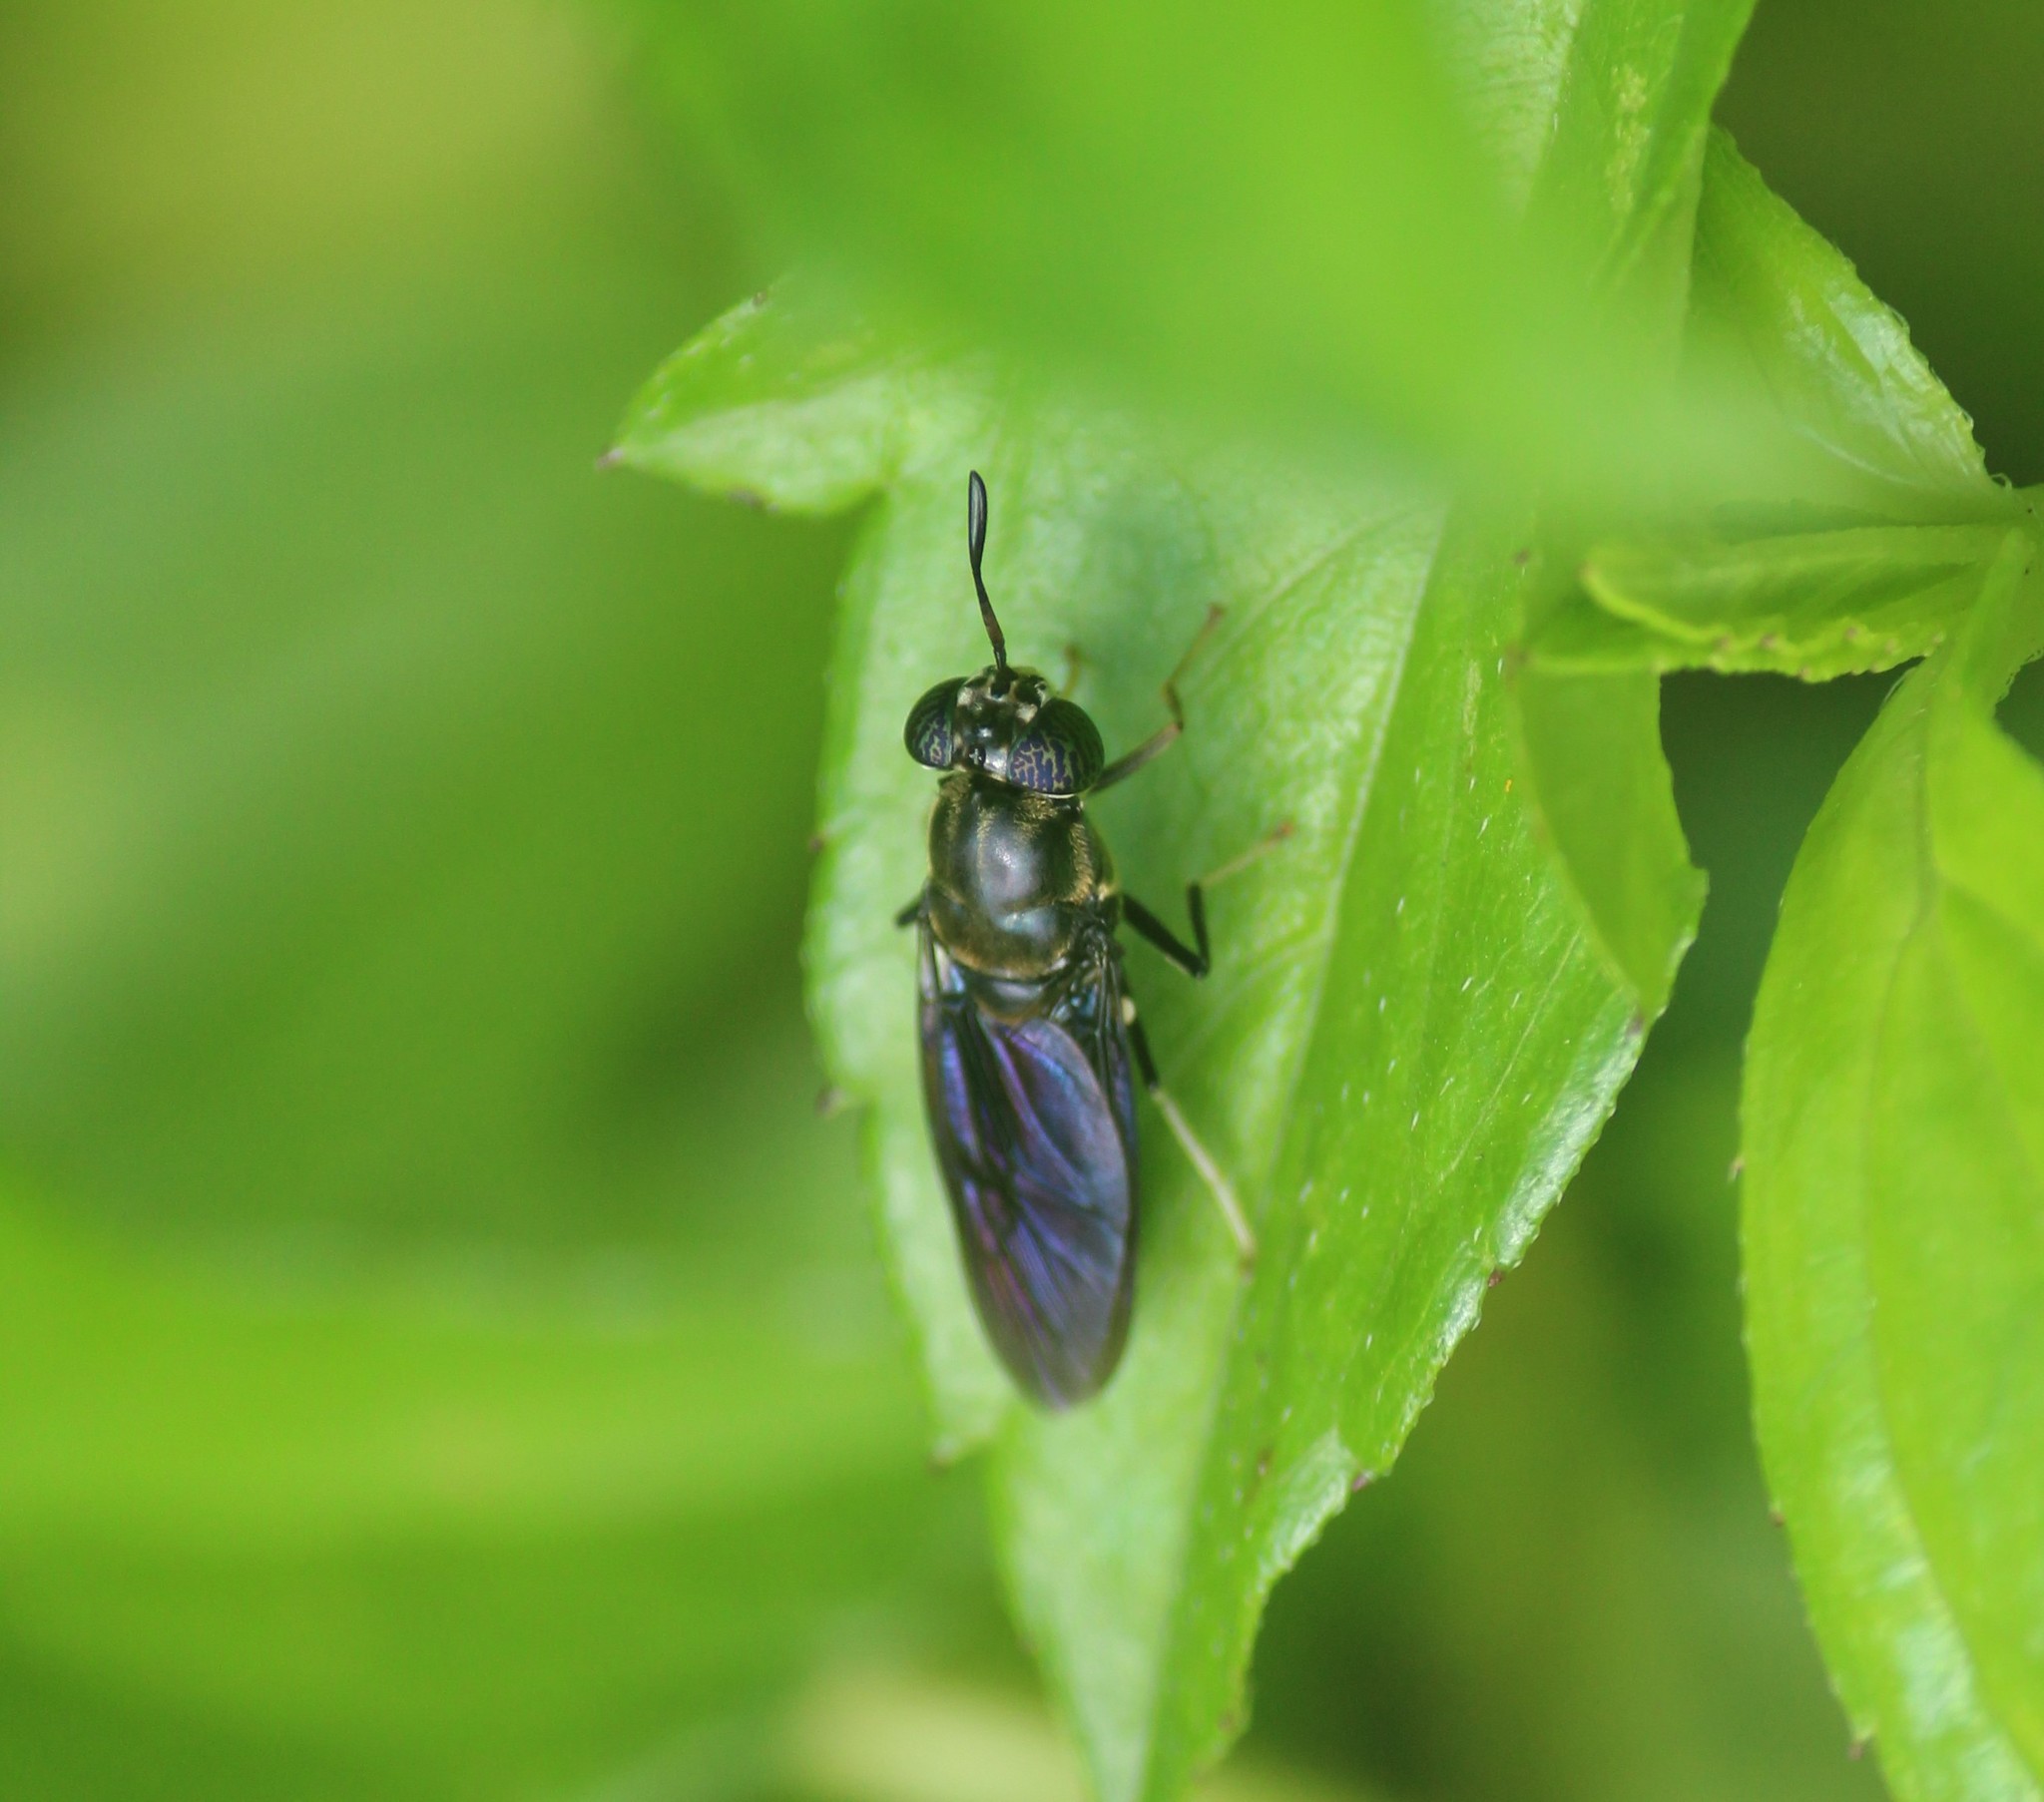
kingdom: Animalia
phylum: Arthropoda
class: Insecta
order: Diptera
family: Stratiomyidae
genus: Hermetia
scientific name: Hermetia illucens
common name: Black soldier fly
